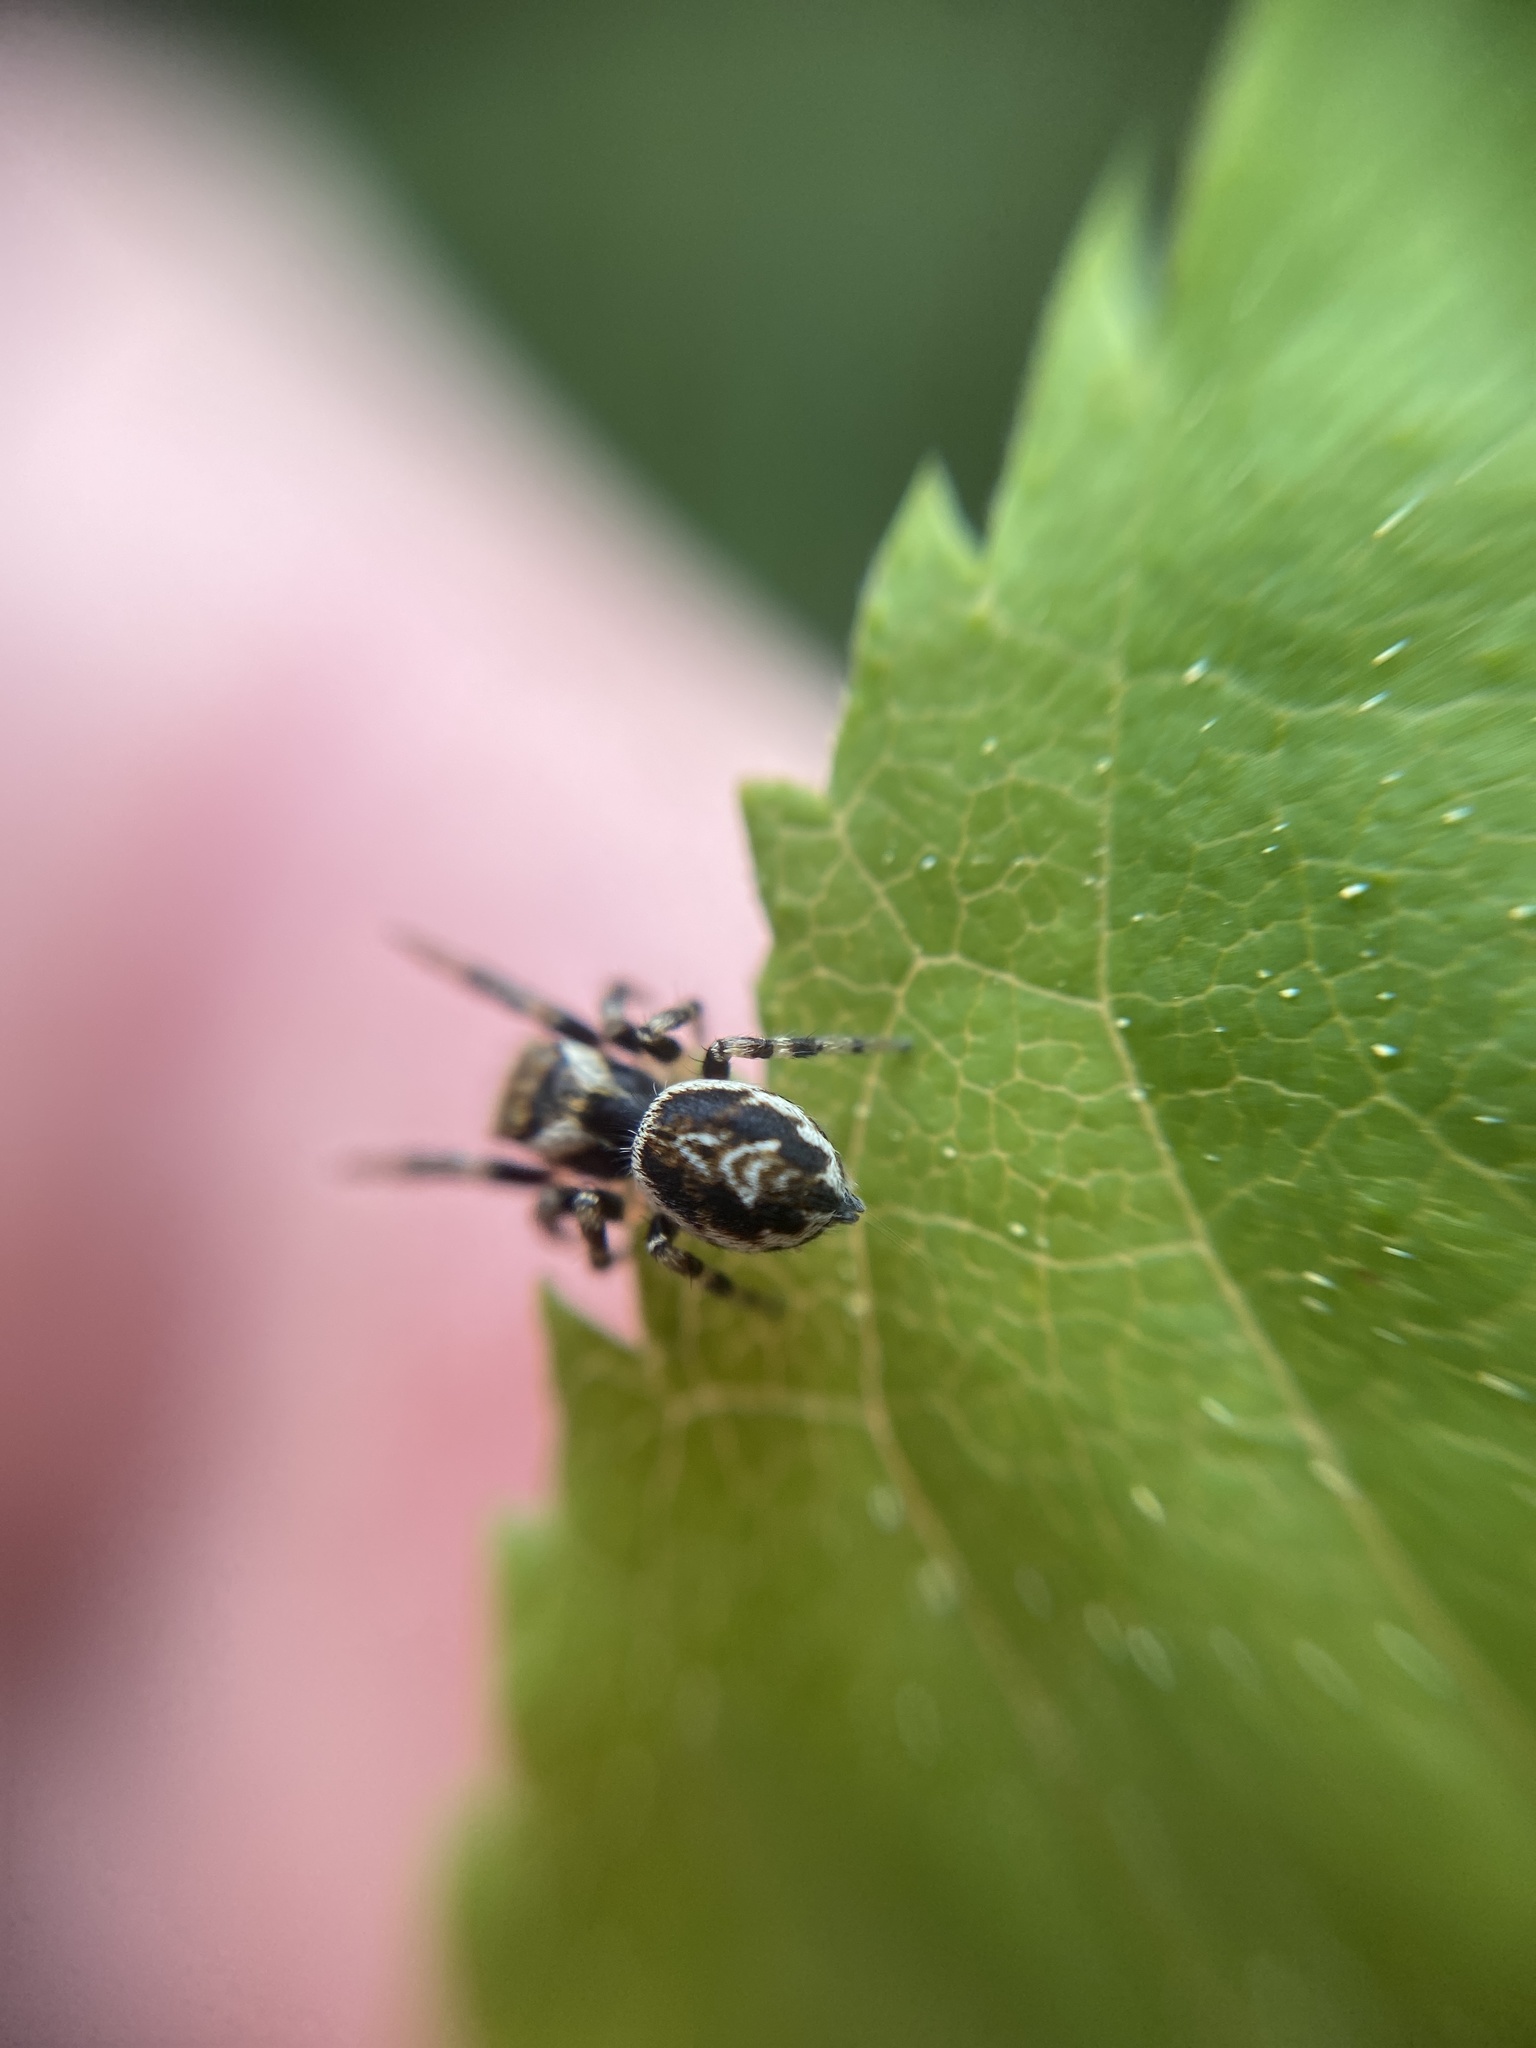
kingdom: Animalia
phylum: Arthropoda
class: Arachnida
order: Araneae
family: Salticidae
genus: Evarcha
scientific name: Evarcha falcata
